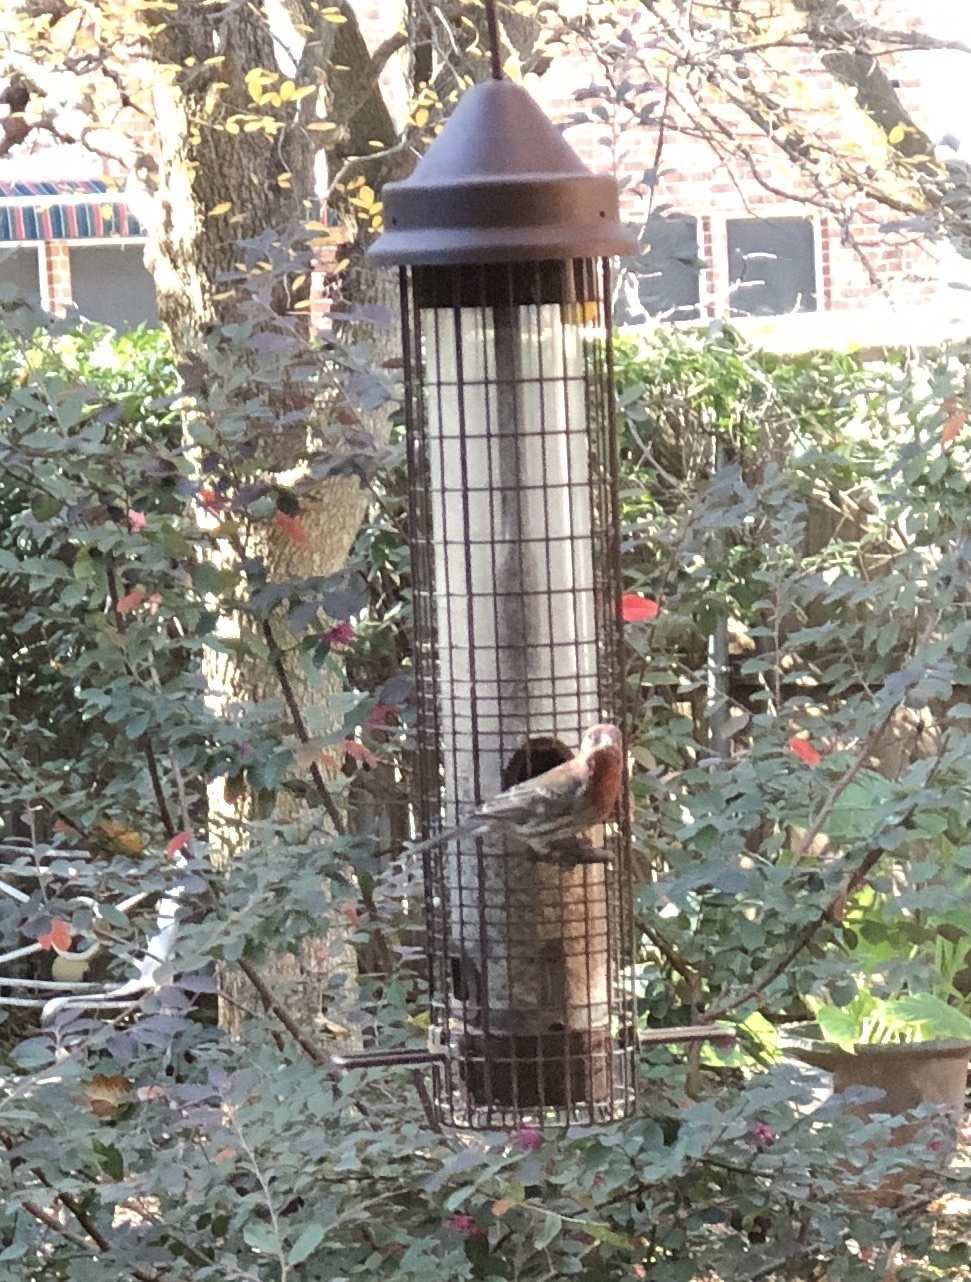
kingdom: Animalia
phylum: Chordata
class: Aves
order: Passeriformes
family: Fringillidae
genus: Haemorhous
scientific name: Haemorhous mexicanus
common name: House finch
